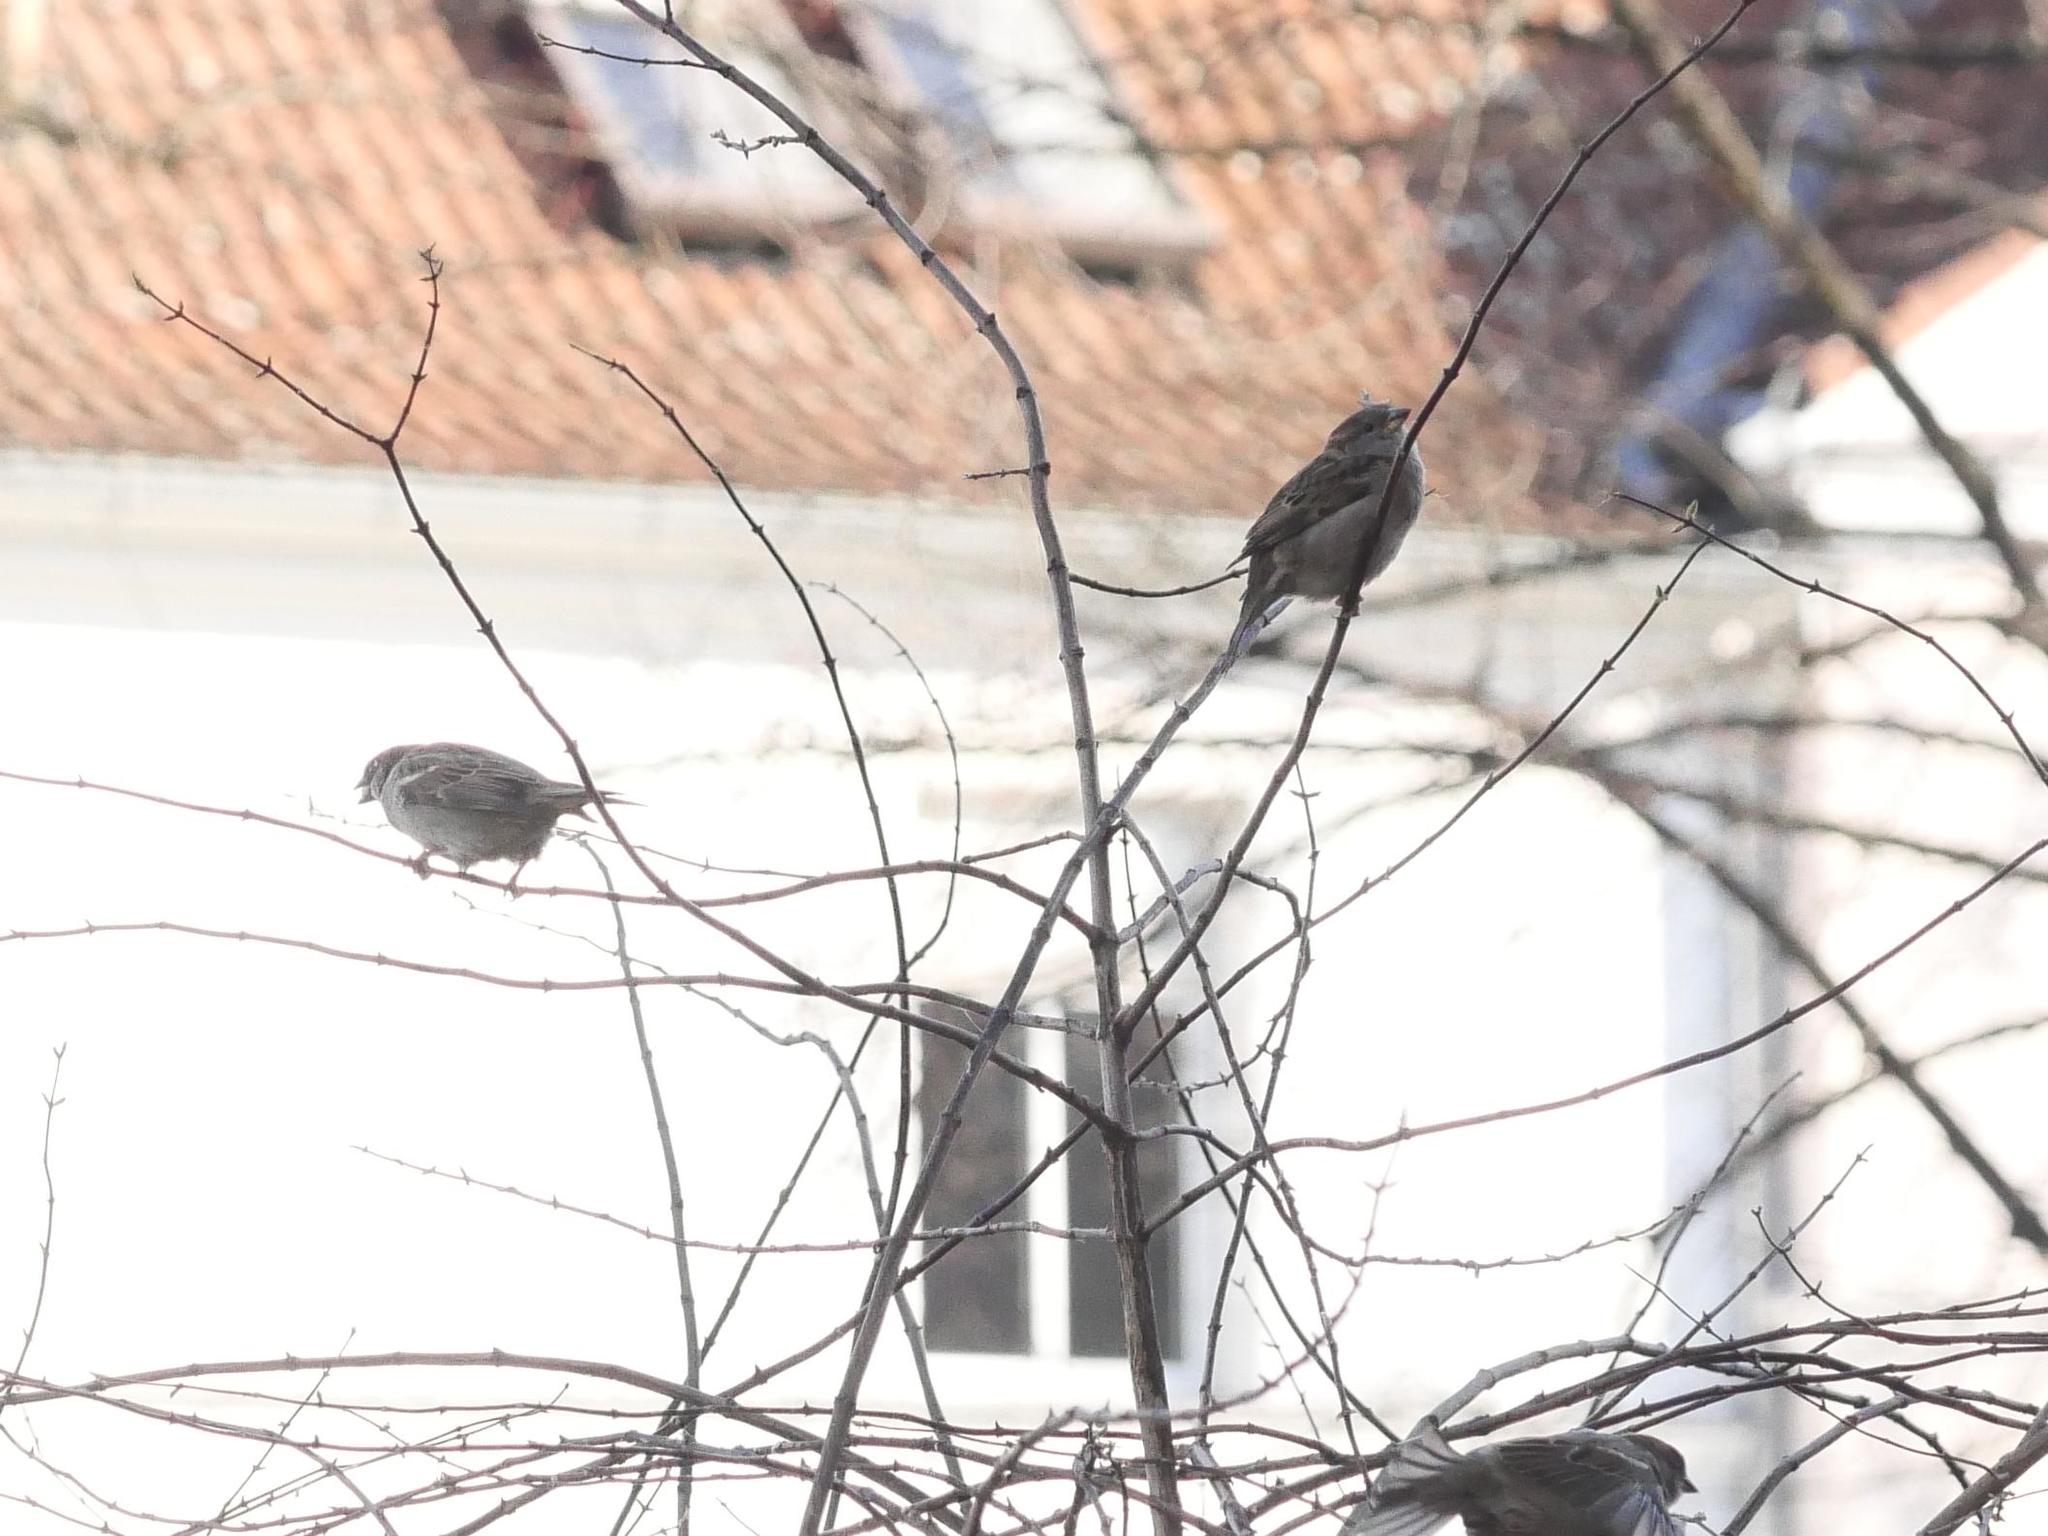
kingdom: Animalia
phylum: Chordata
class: Aves
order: Passeriformes
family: Passeridae
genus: Passer
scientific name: Passer domesticus
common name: House sparrow
